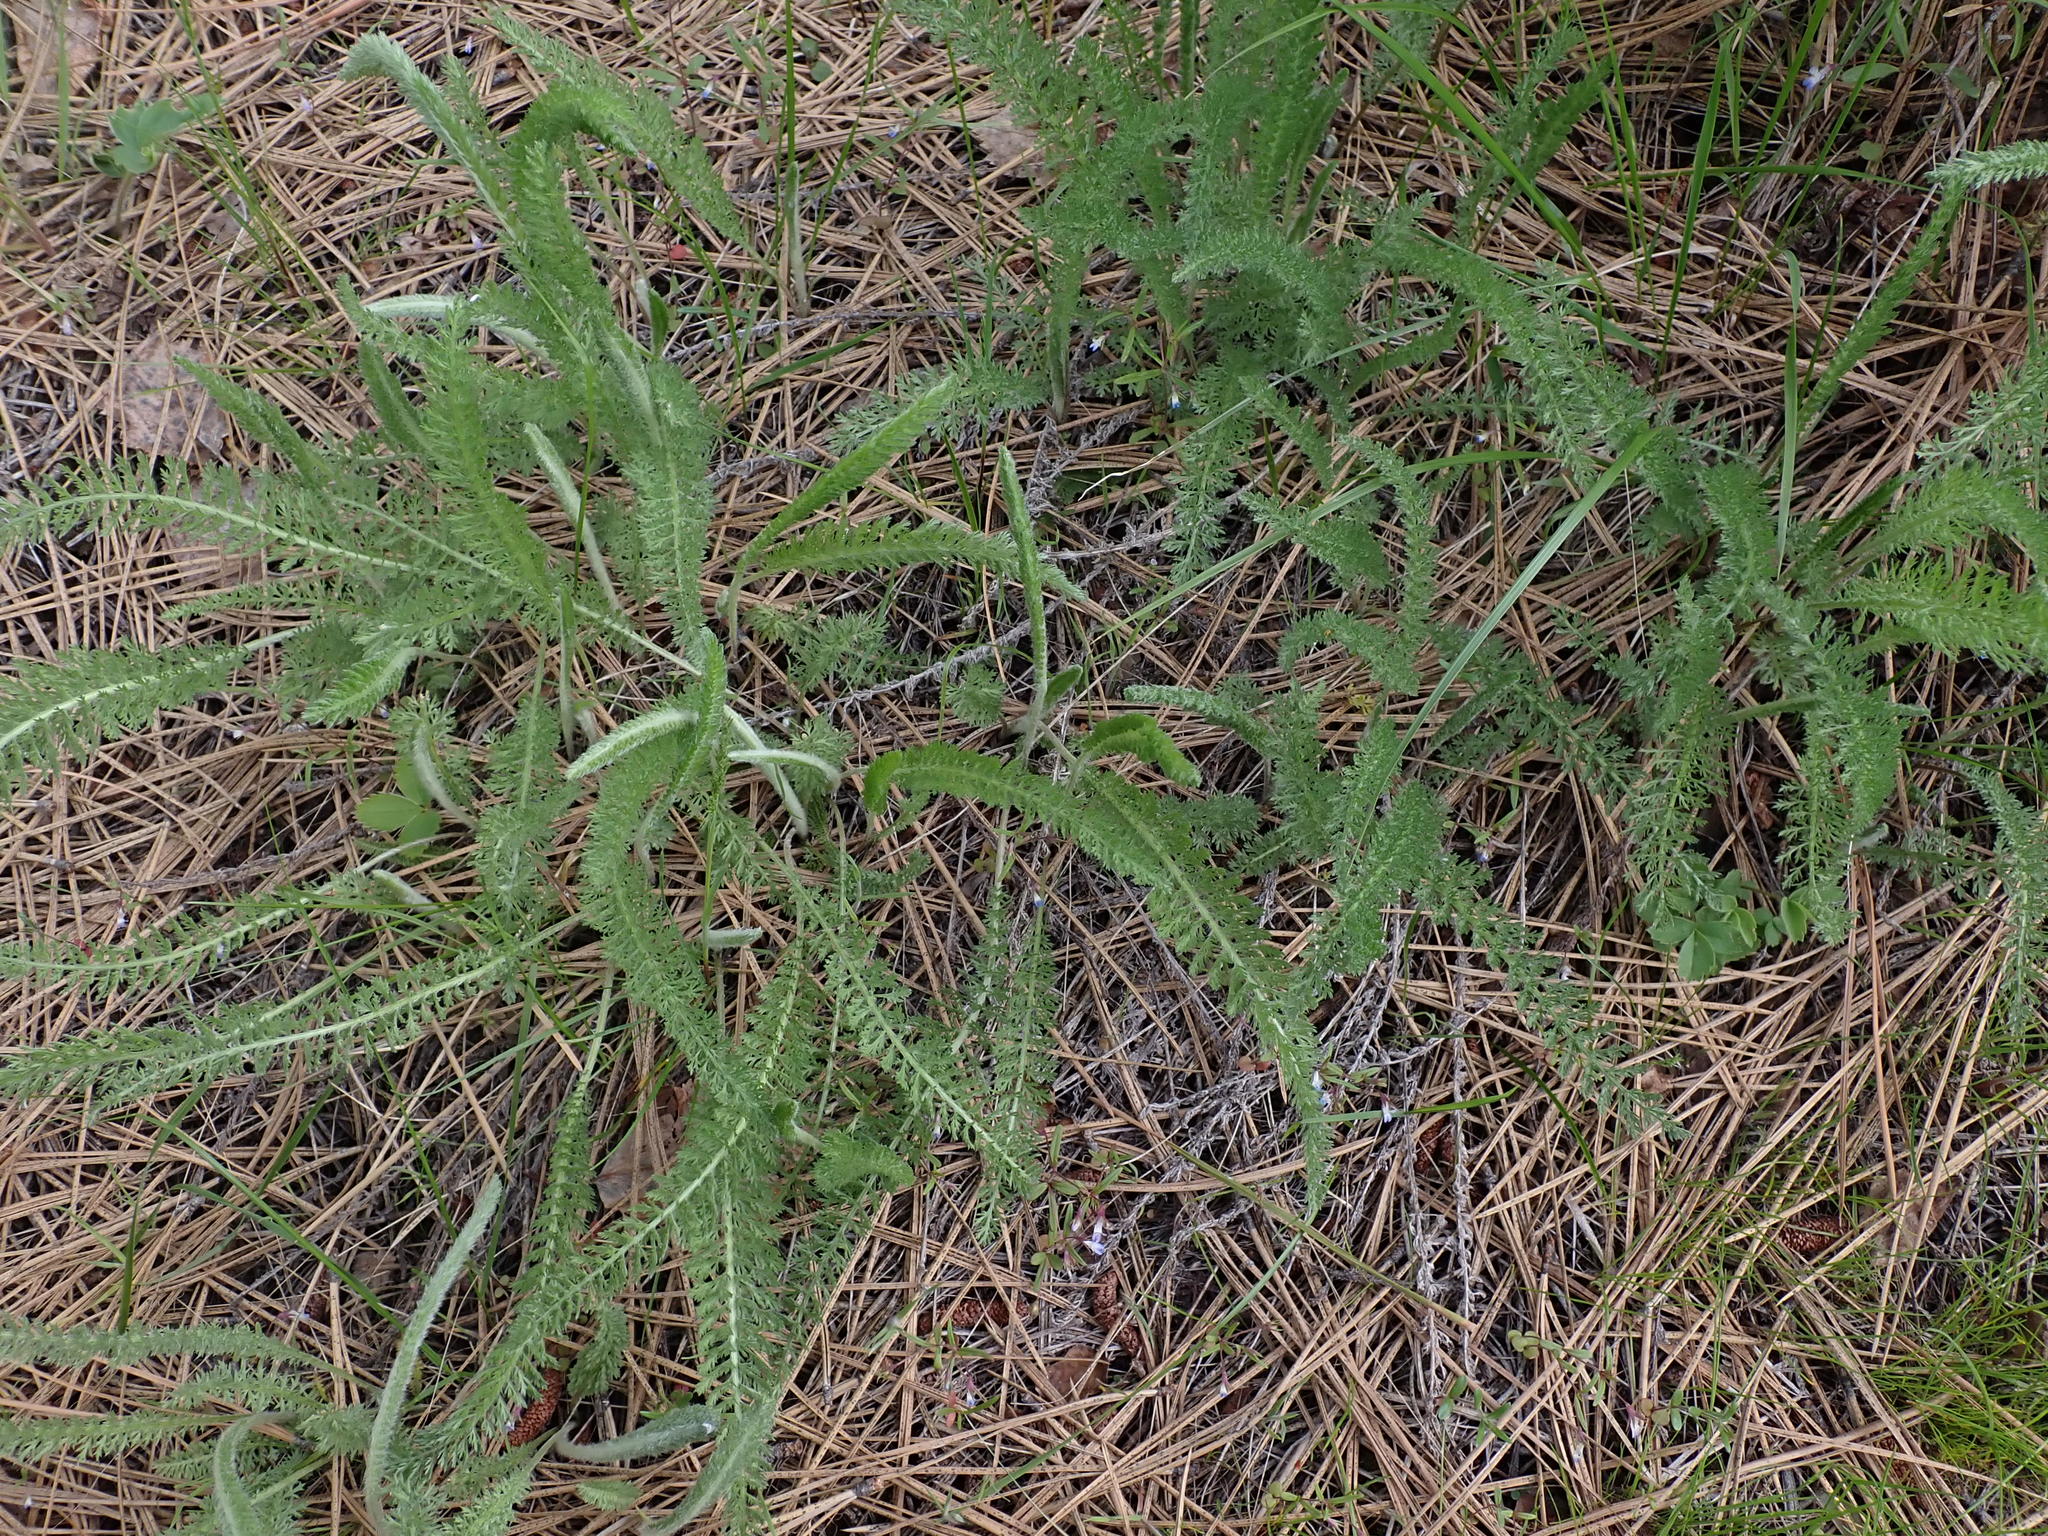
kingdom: Plantae
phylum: Tracheophyta
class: Magnoliopsida
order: Asterales
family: Asteraceae
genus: Achillea
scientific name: Achillea millefolium
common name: Yarrow
